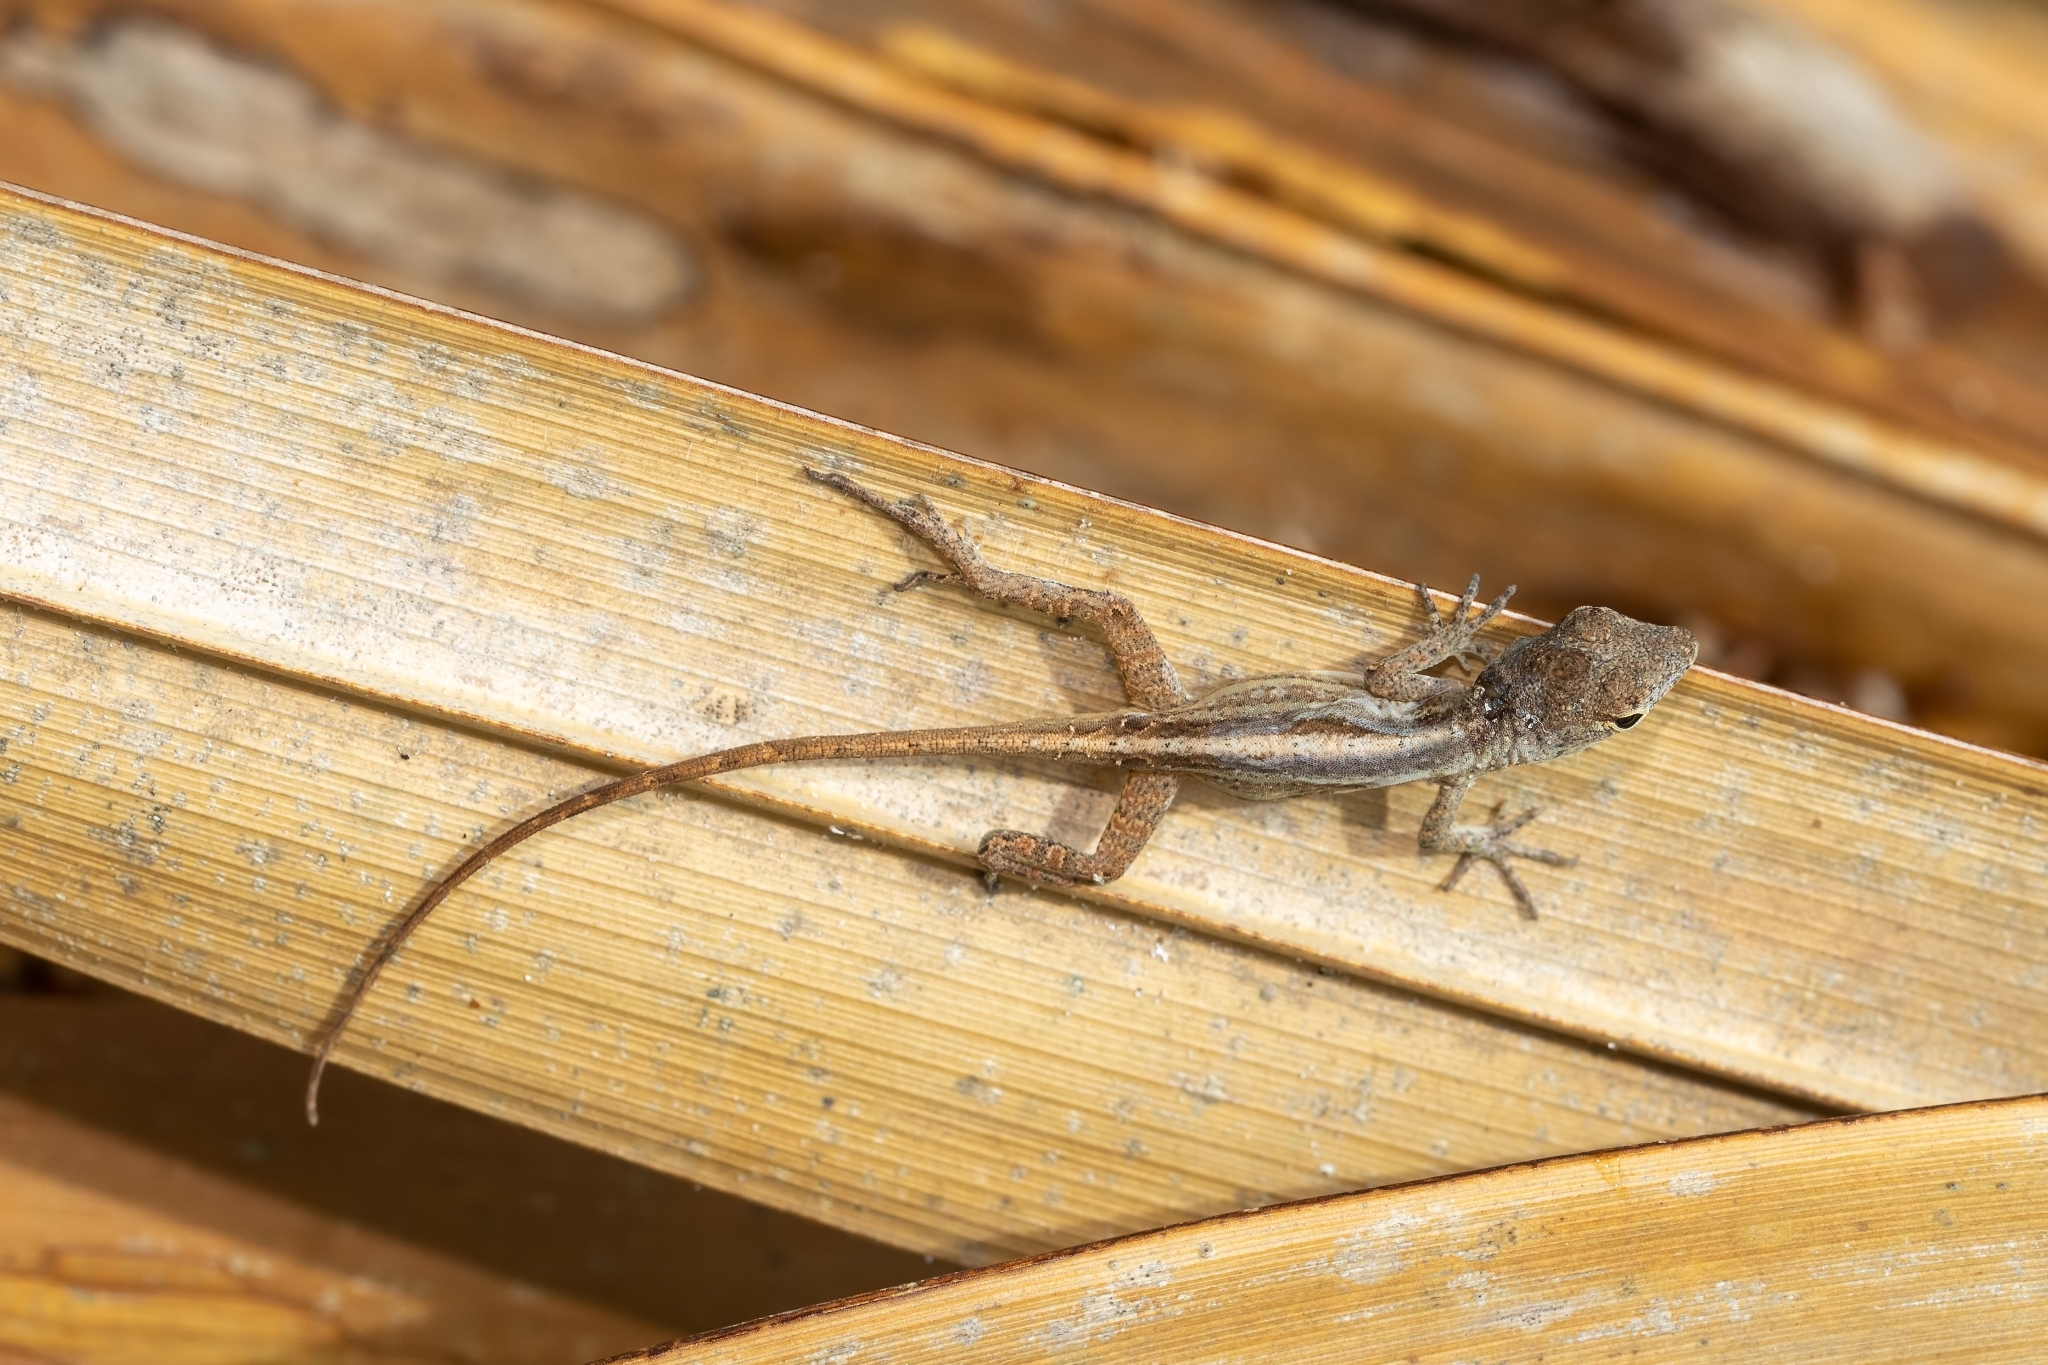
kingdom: Animalia
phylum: Chordata
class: Squamata
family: Dactyloidae
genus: Anolis
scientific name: Anolis sagrei
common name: Brown anole
